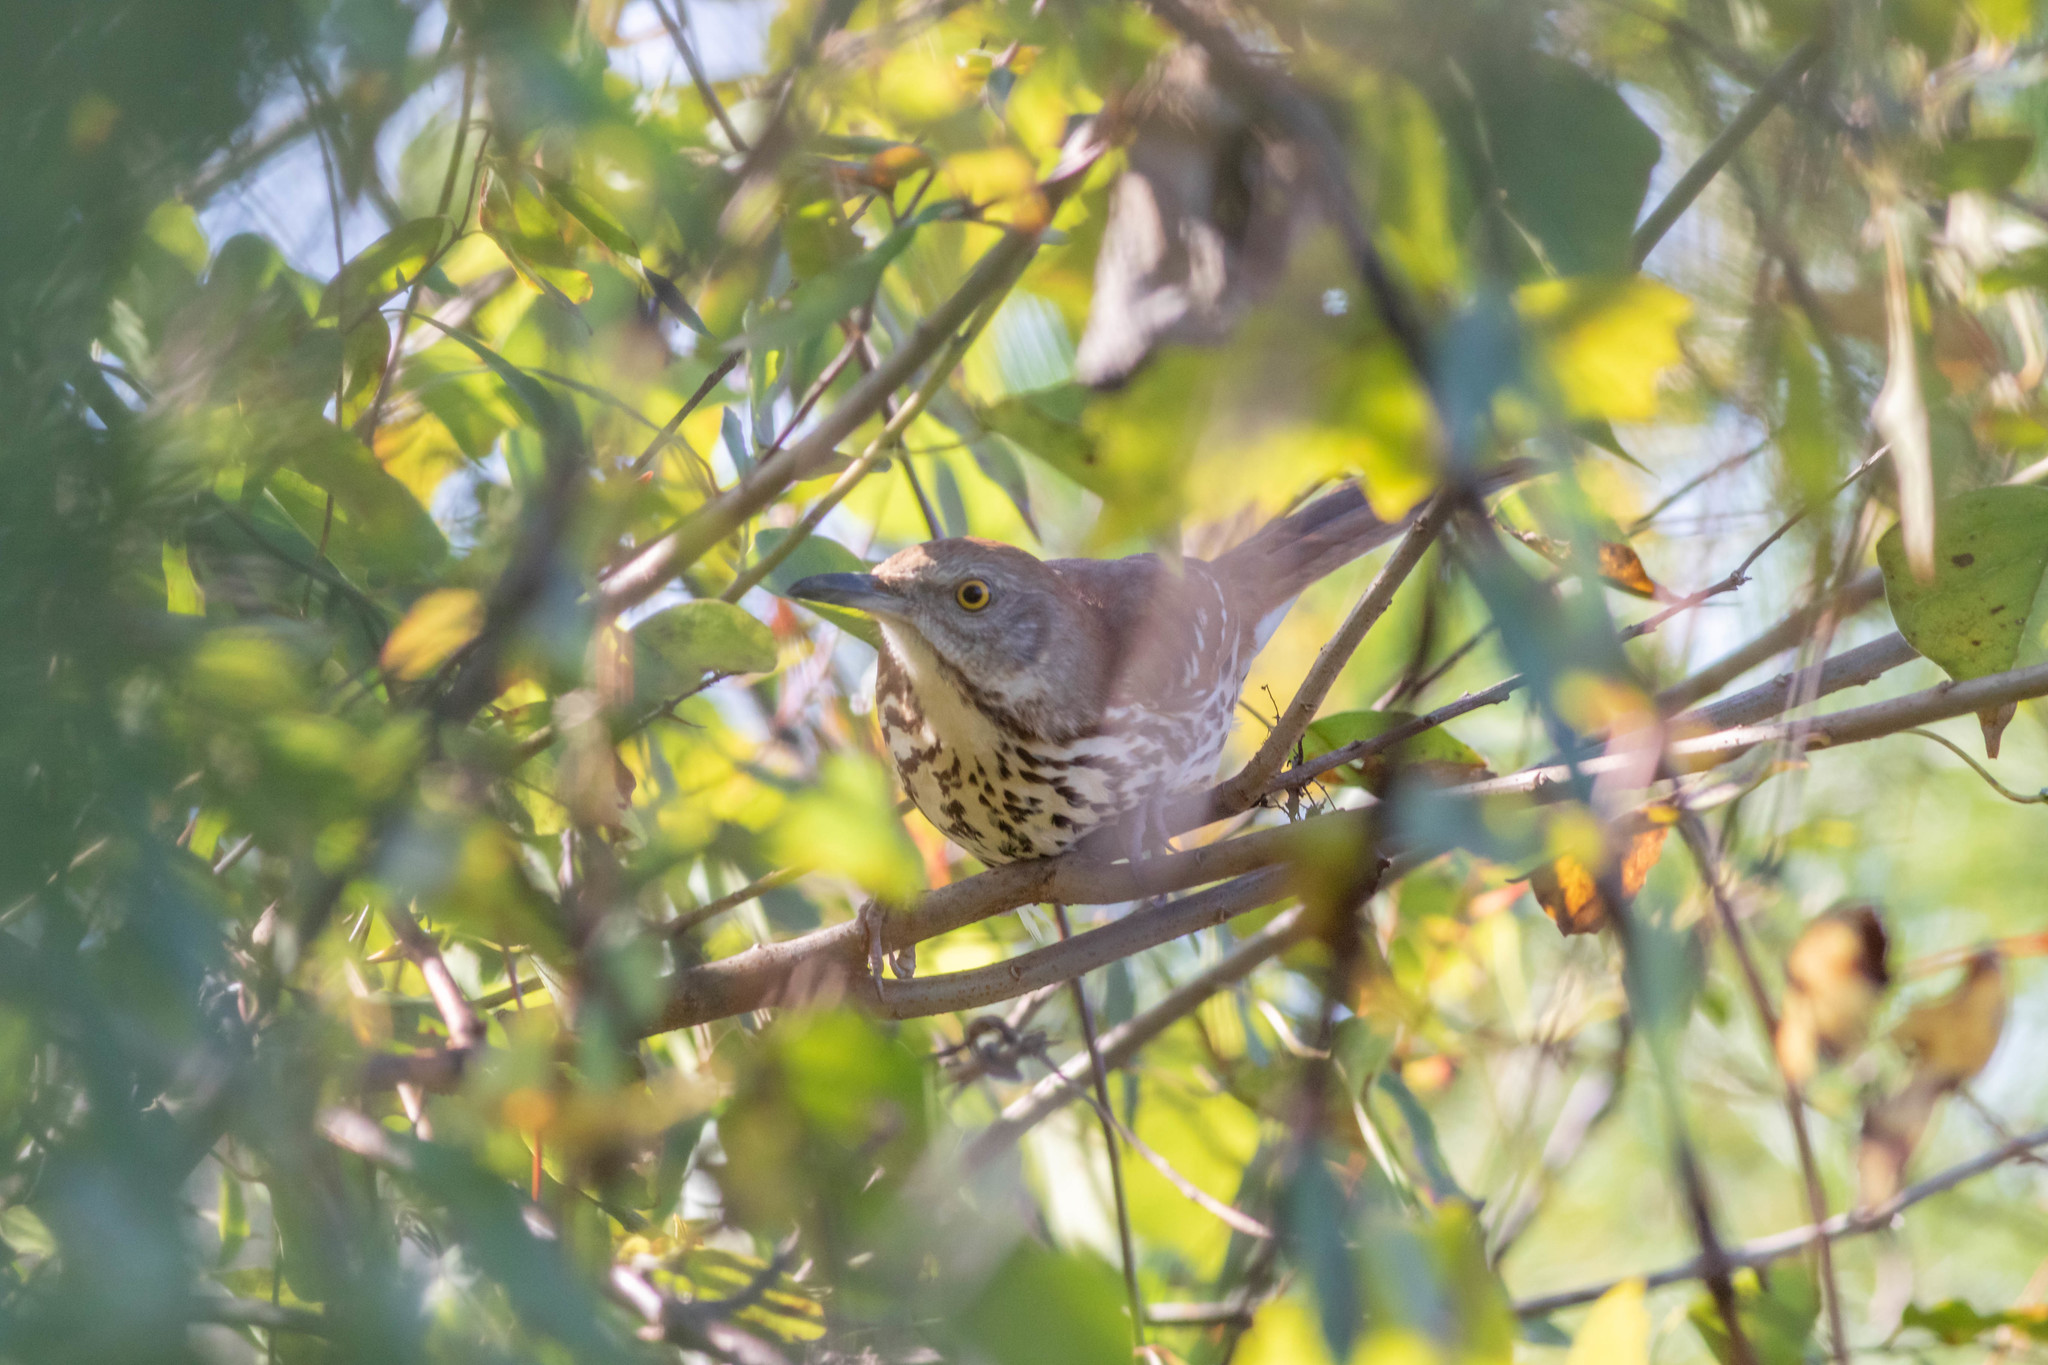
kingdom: Animalia
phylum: Chordata
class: Aves
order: Passeriformes
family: Mimidae
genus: Toxostoma
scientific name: Toxostoma rufum
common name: Brown thrasher
